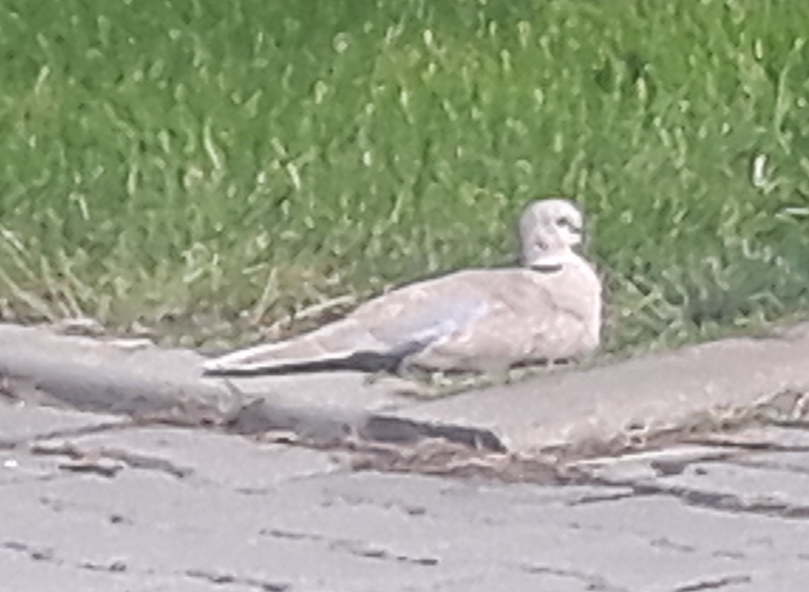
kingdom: Animalia
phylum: Chordata
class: Aves
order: Columbiformes
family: Columbidae
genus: Streptopelia
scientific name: Streptopelia decaocto
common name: Eurasian collared dove
